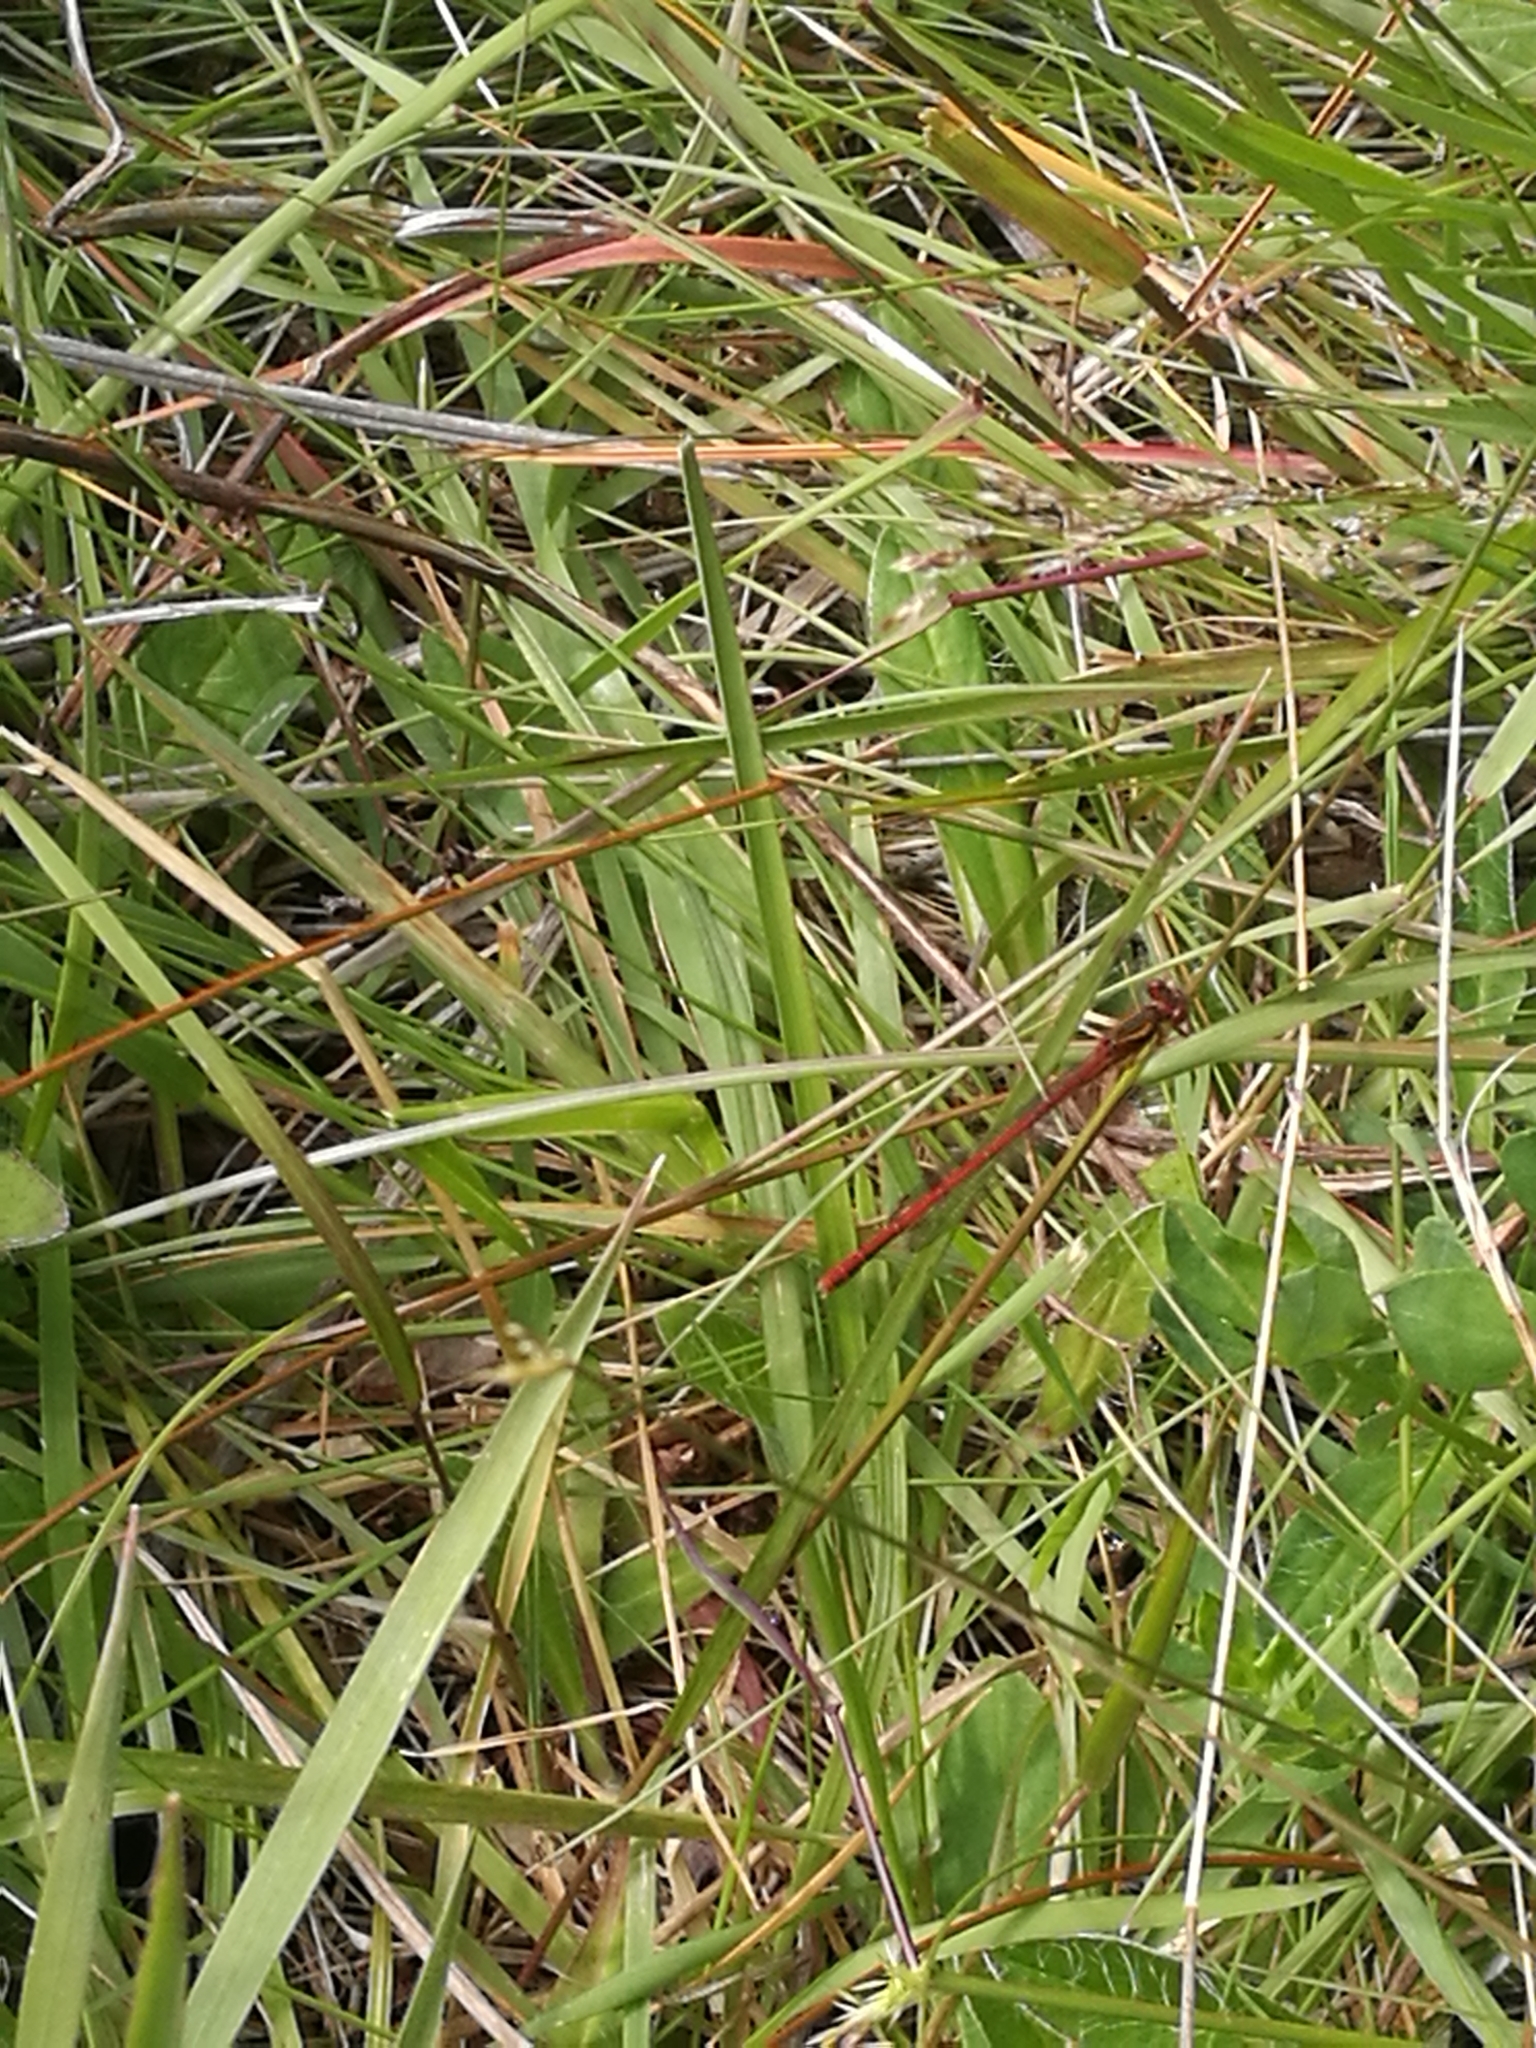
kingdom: Animalia
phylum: Arthropoda
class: Insecta
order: Odonata
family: Coenagrionidae
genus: Xanthocnemis
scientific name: Xanthocnemis zealandica
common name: Common redcoat damselfly
